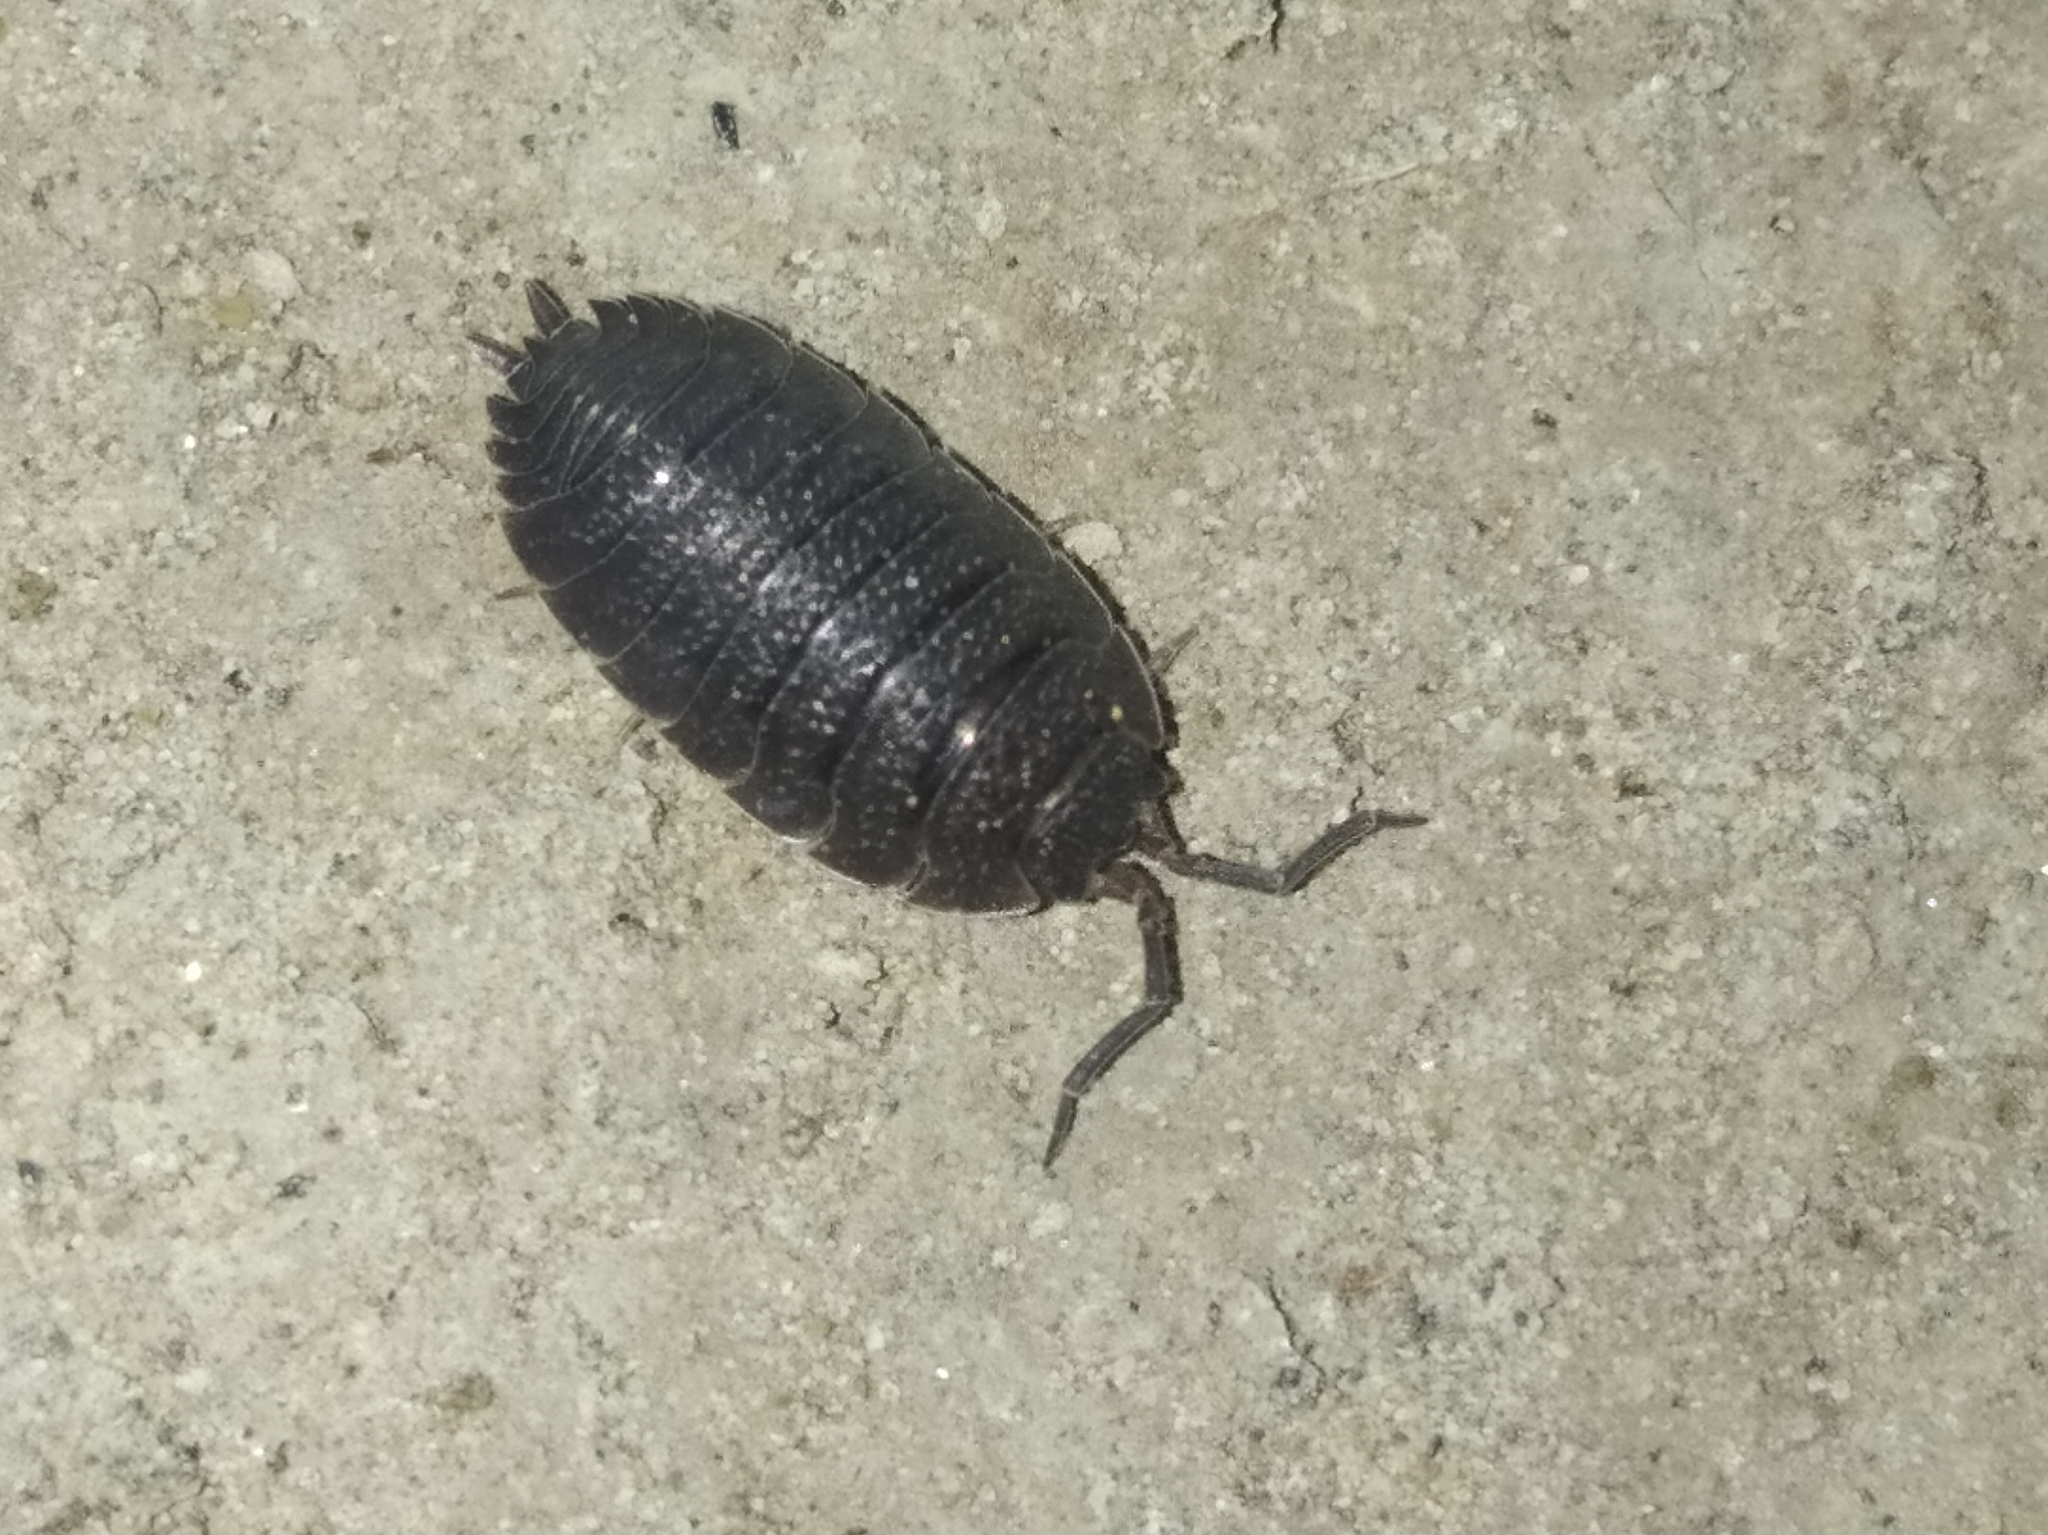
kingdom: Animalia
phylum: Arthropoda
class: Malacostraca
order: Isopoda
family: Porcellionidae
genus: Porcellio
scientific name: Porcellio scaber
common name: Common rough woodlouse
